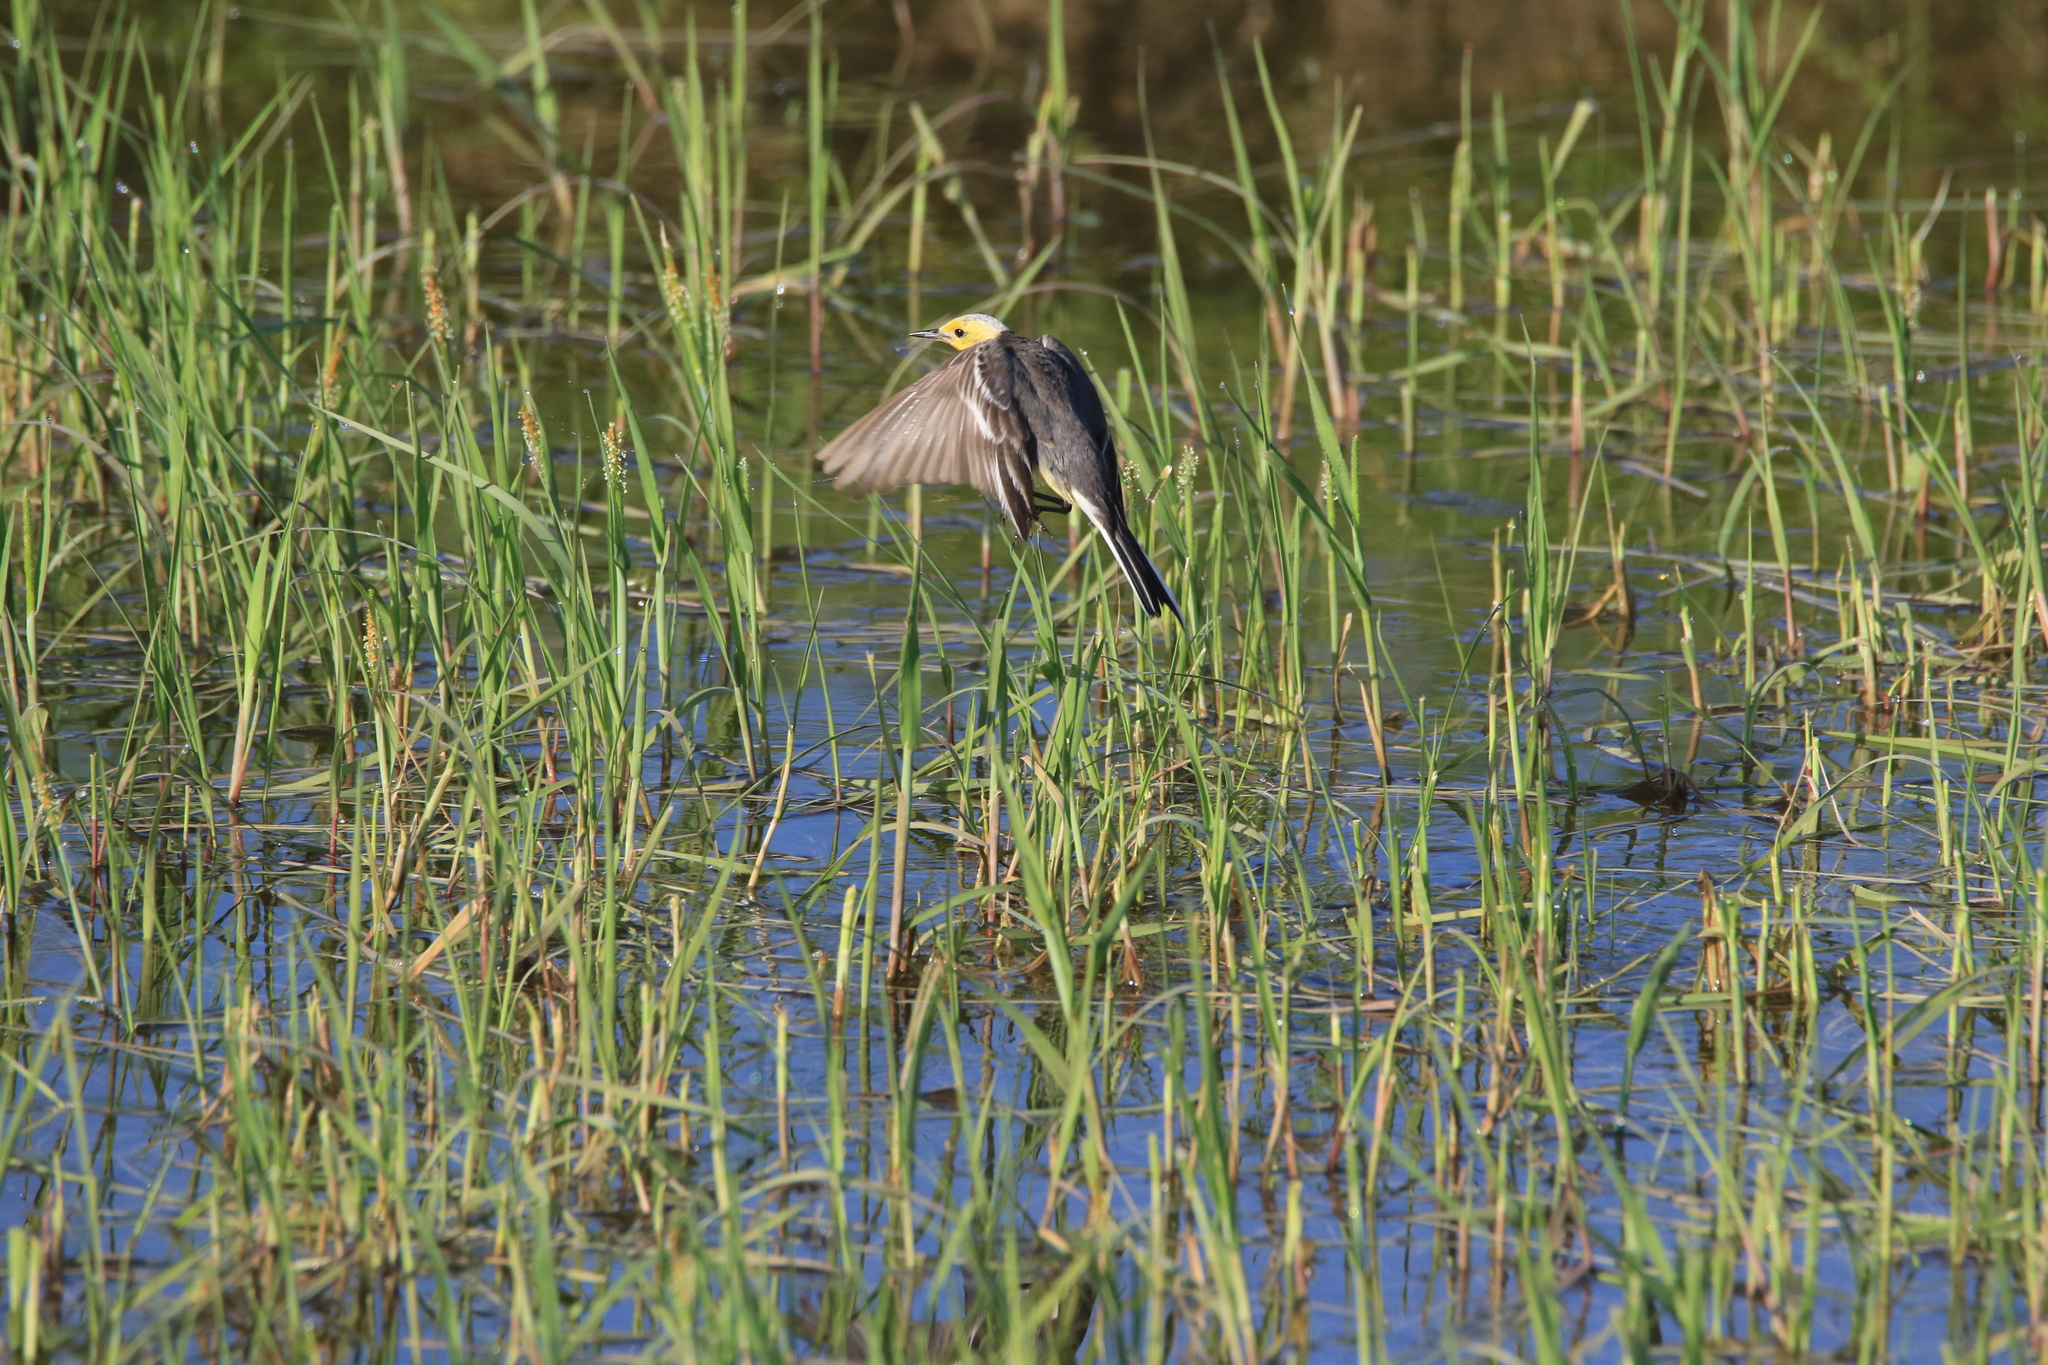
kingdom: Animalia
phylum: Chordata
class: Aves
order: Passeriformes
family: Motacillidae
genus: Motacilla
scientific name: Motacilla citreola
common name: Citrine wagtail
